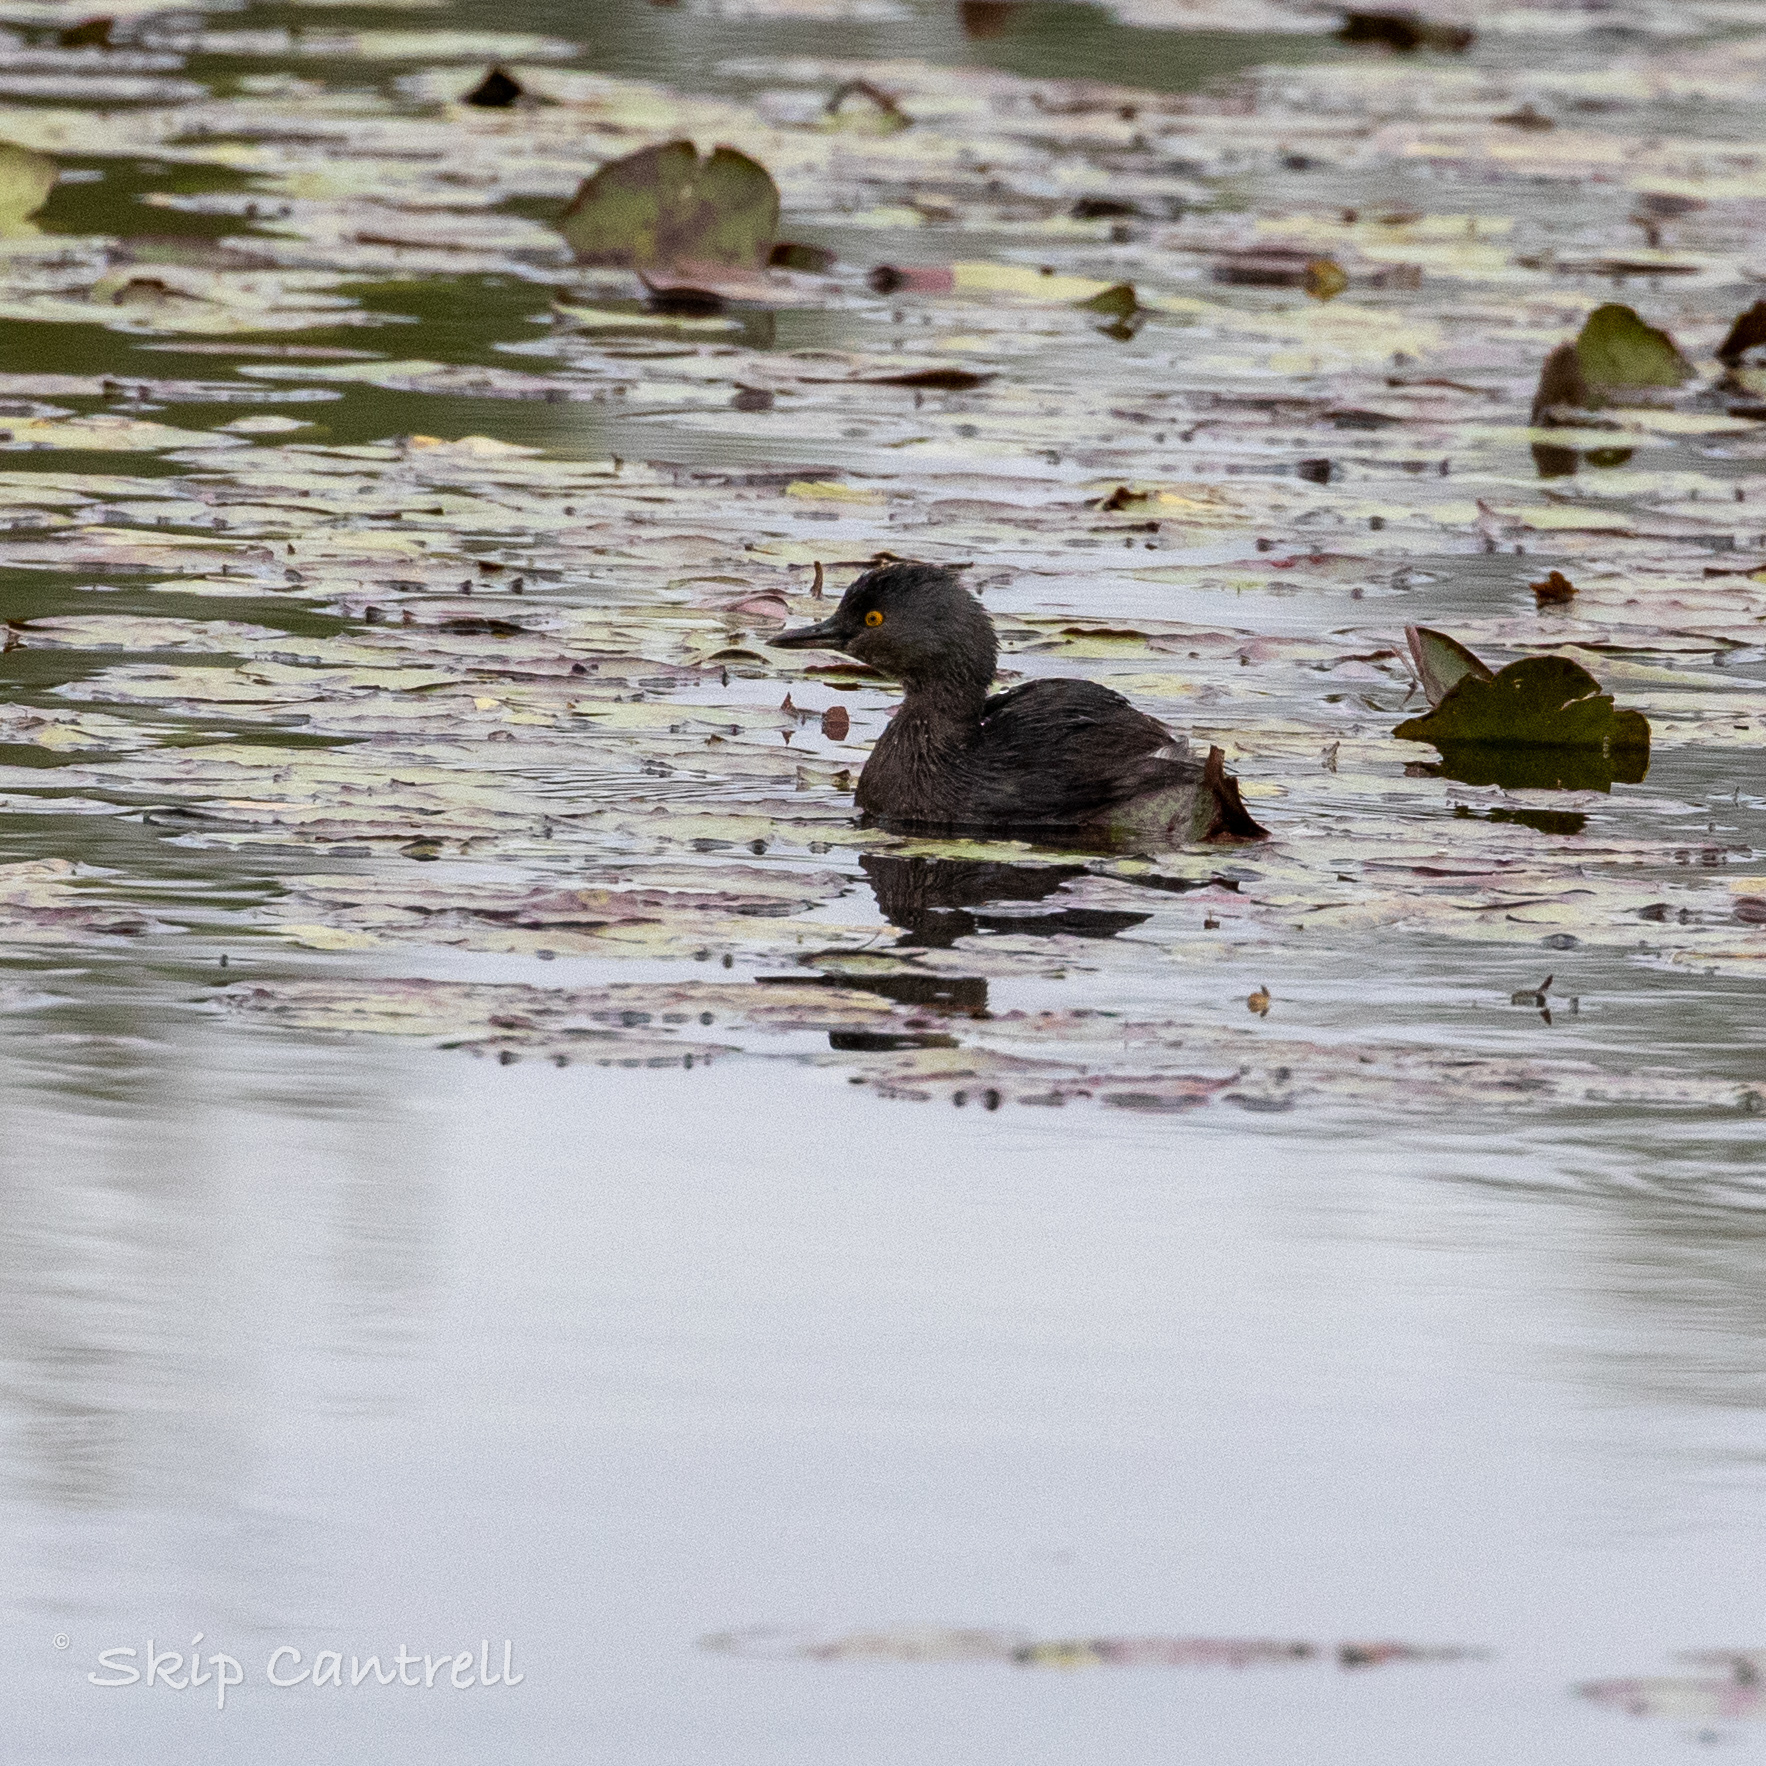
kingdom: Animalia
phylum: Chordata
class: Aves
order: Podicipediformes
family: Podicipedidae
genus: Tachybaptus
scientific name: Tachybaptus dominicus
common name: Least grebe
